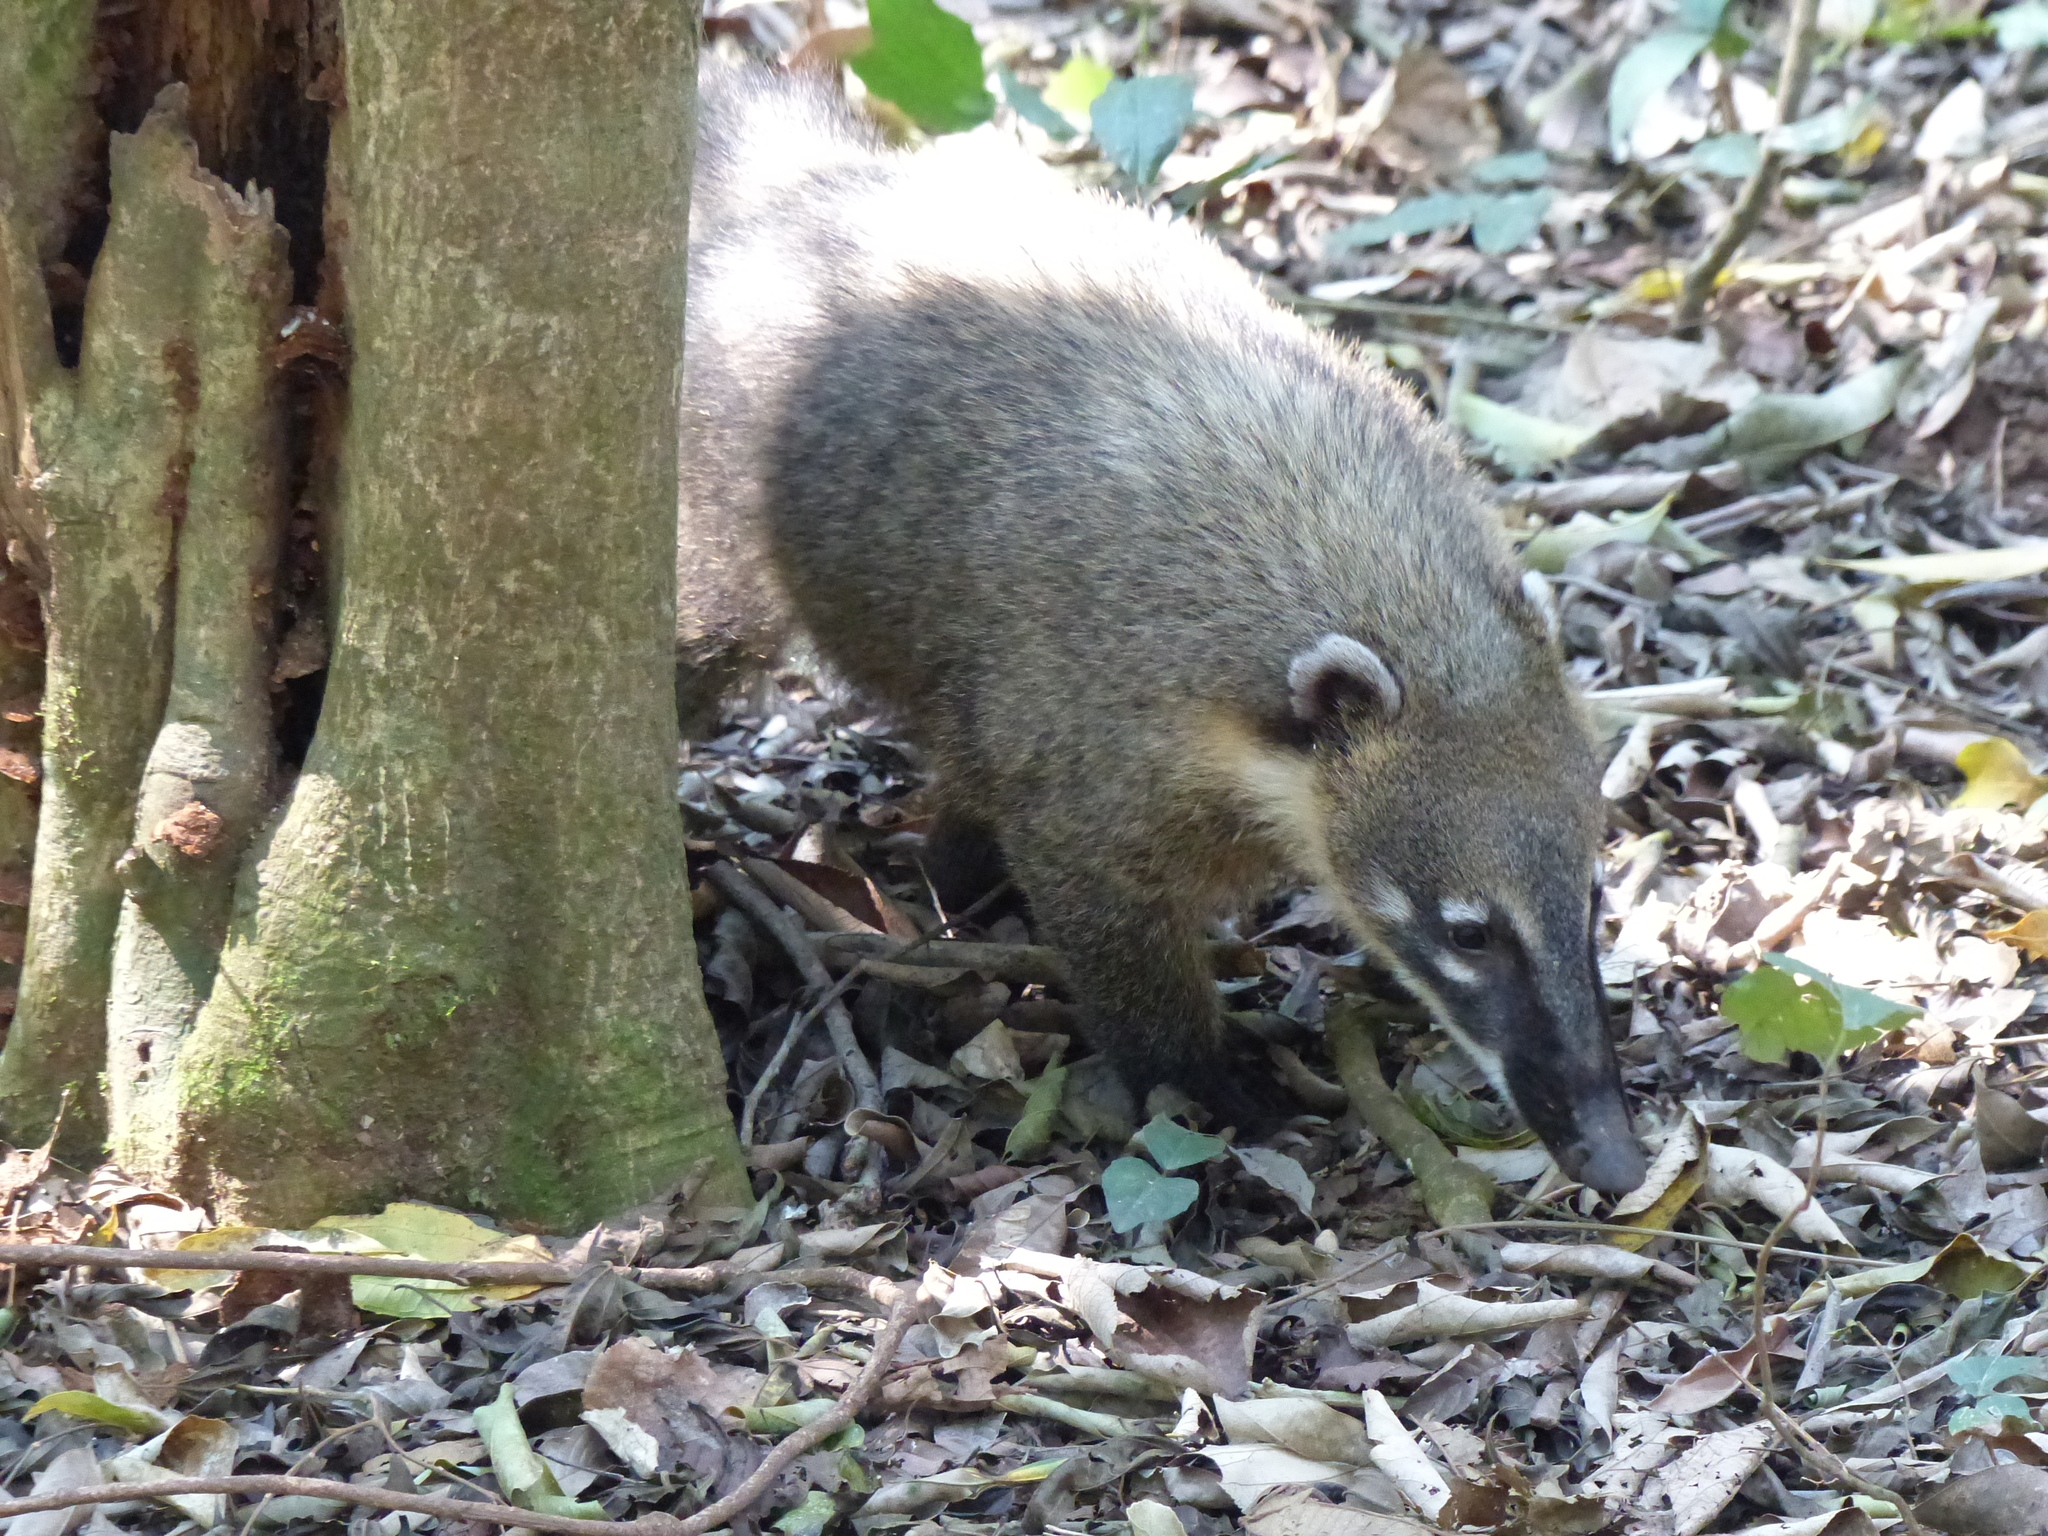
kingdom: Animalia
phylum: Chordata
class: Mammalia
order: Carnivora
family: Procyonidae
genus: Nasua
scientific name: Nasua nasua
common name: South american coati
